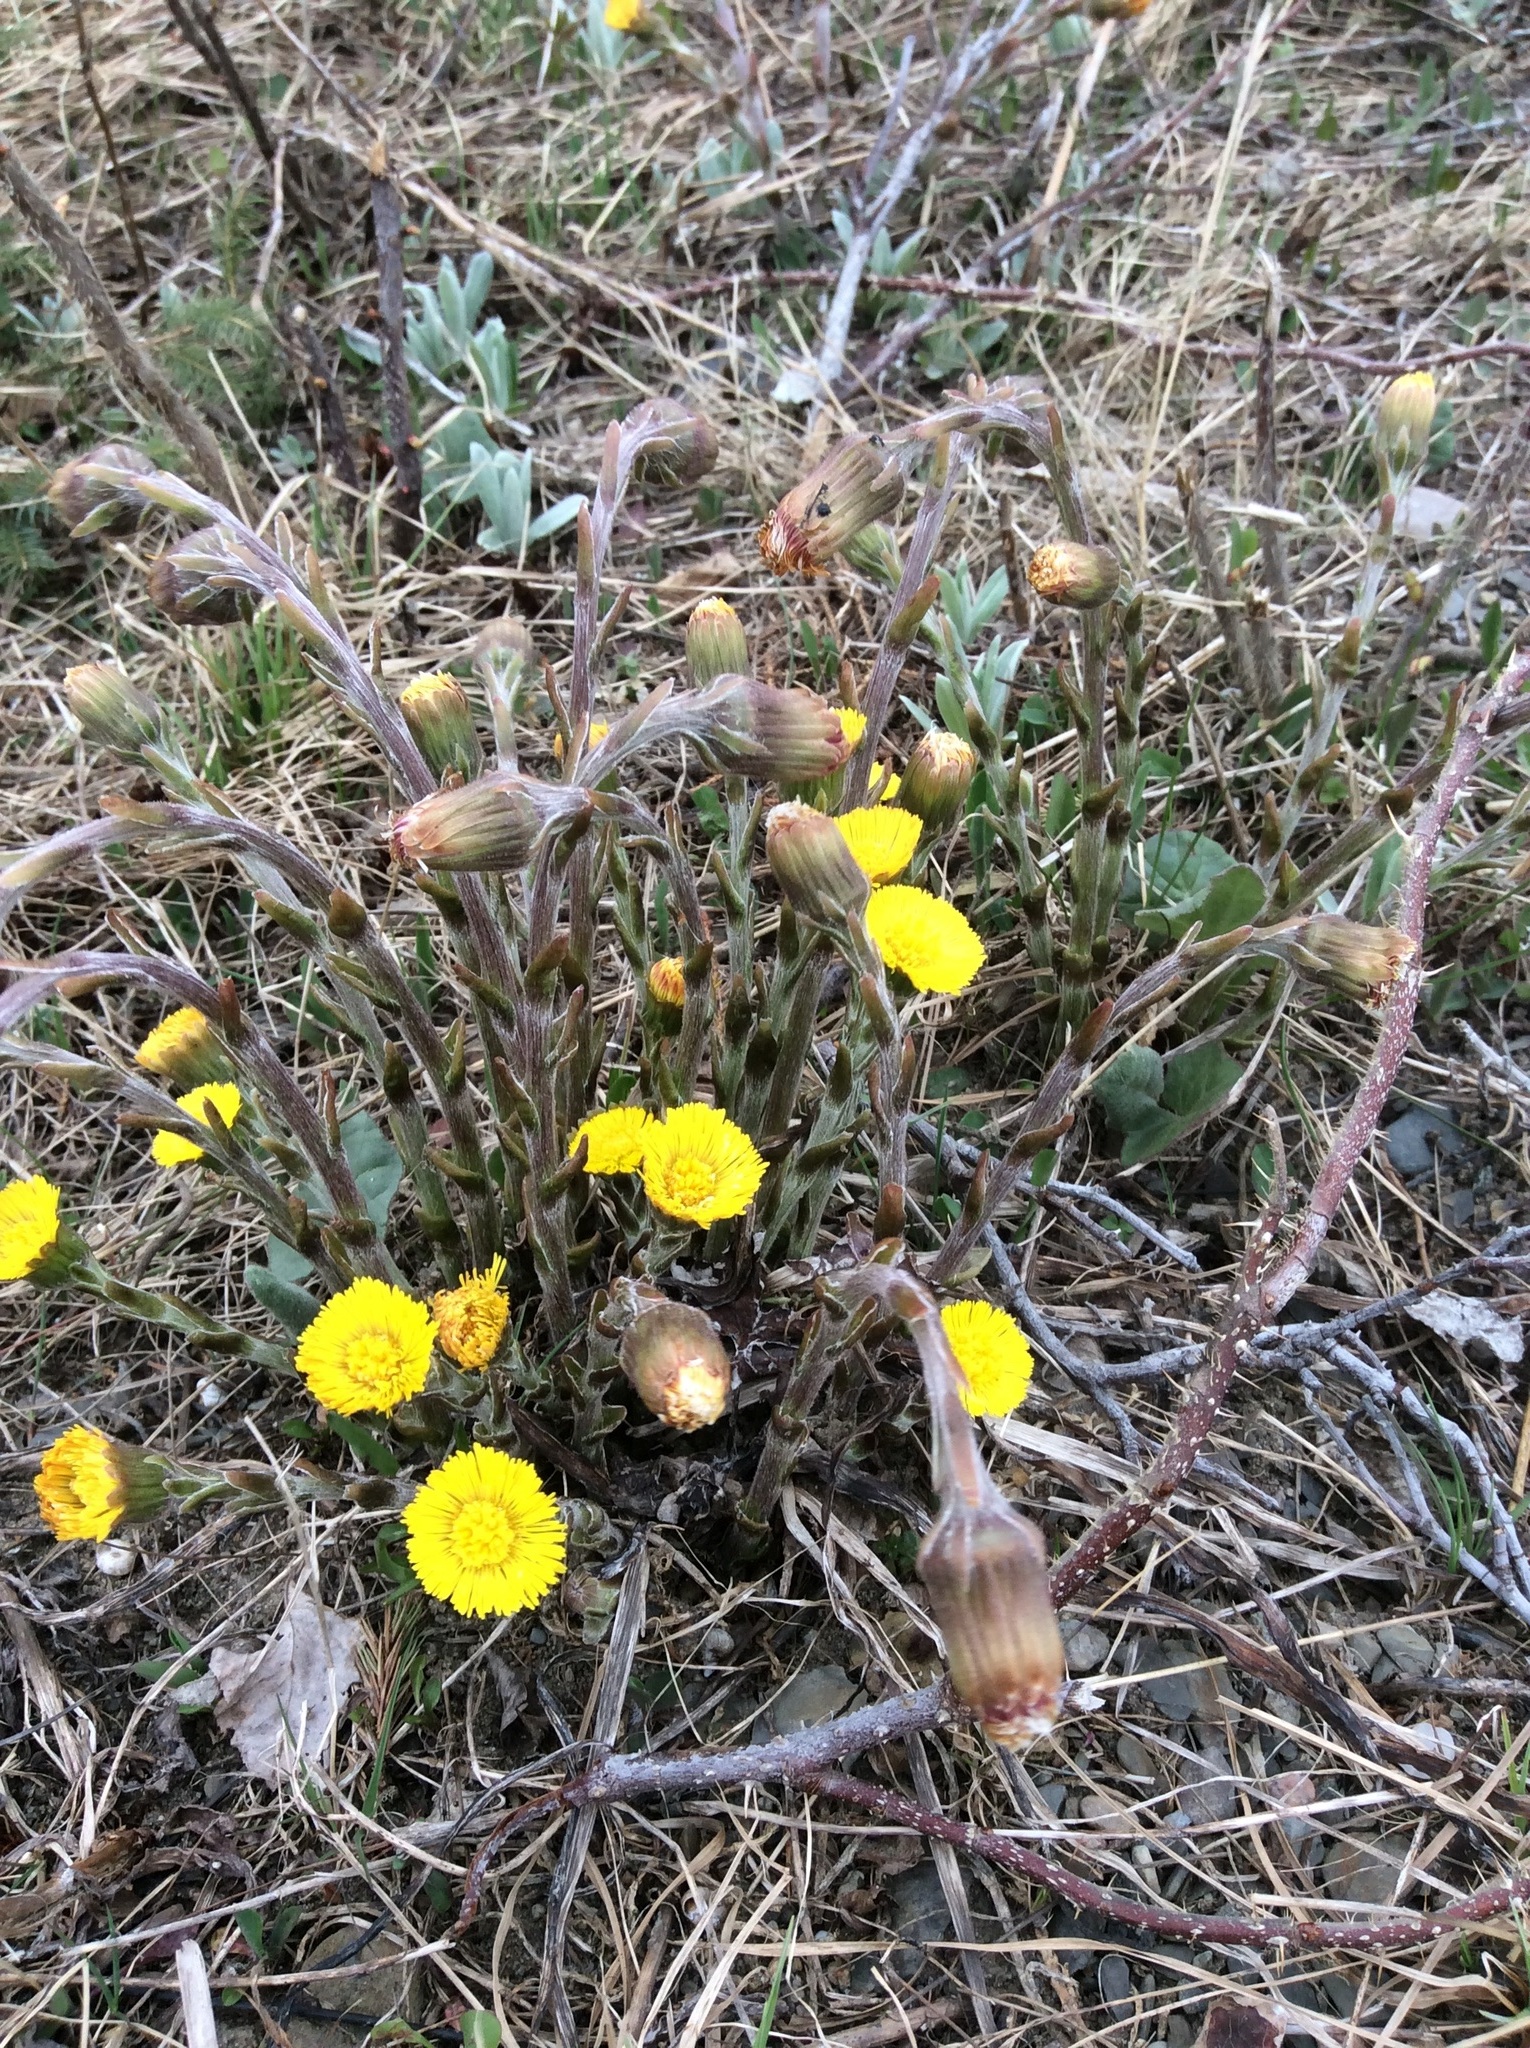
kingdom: Plantae
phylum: Tracheophyta
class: Magnoliopsida
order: Asterales
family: Asteraceae
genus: Tussilago
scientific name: Tussilago farfara
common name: Coltsfoot
